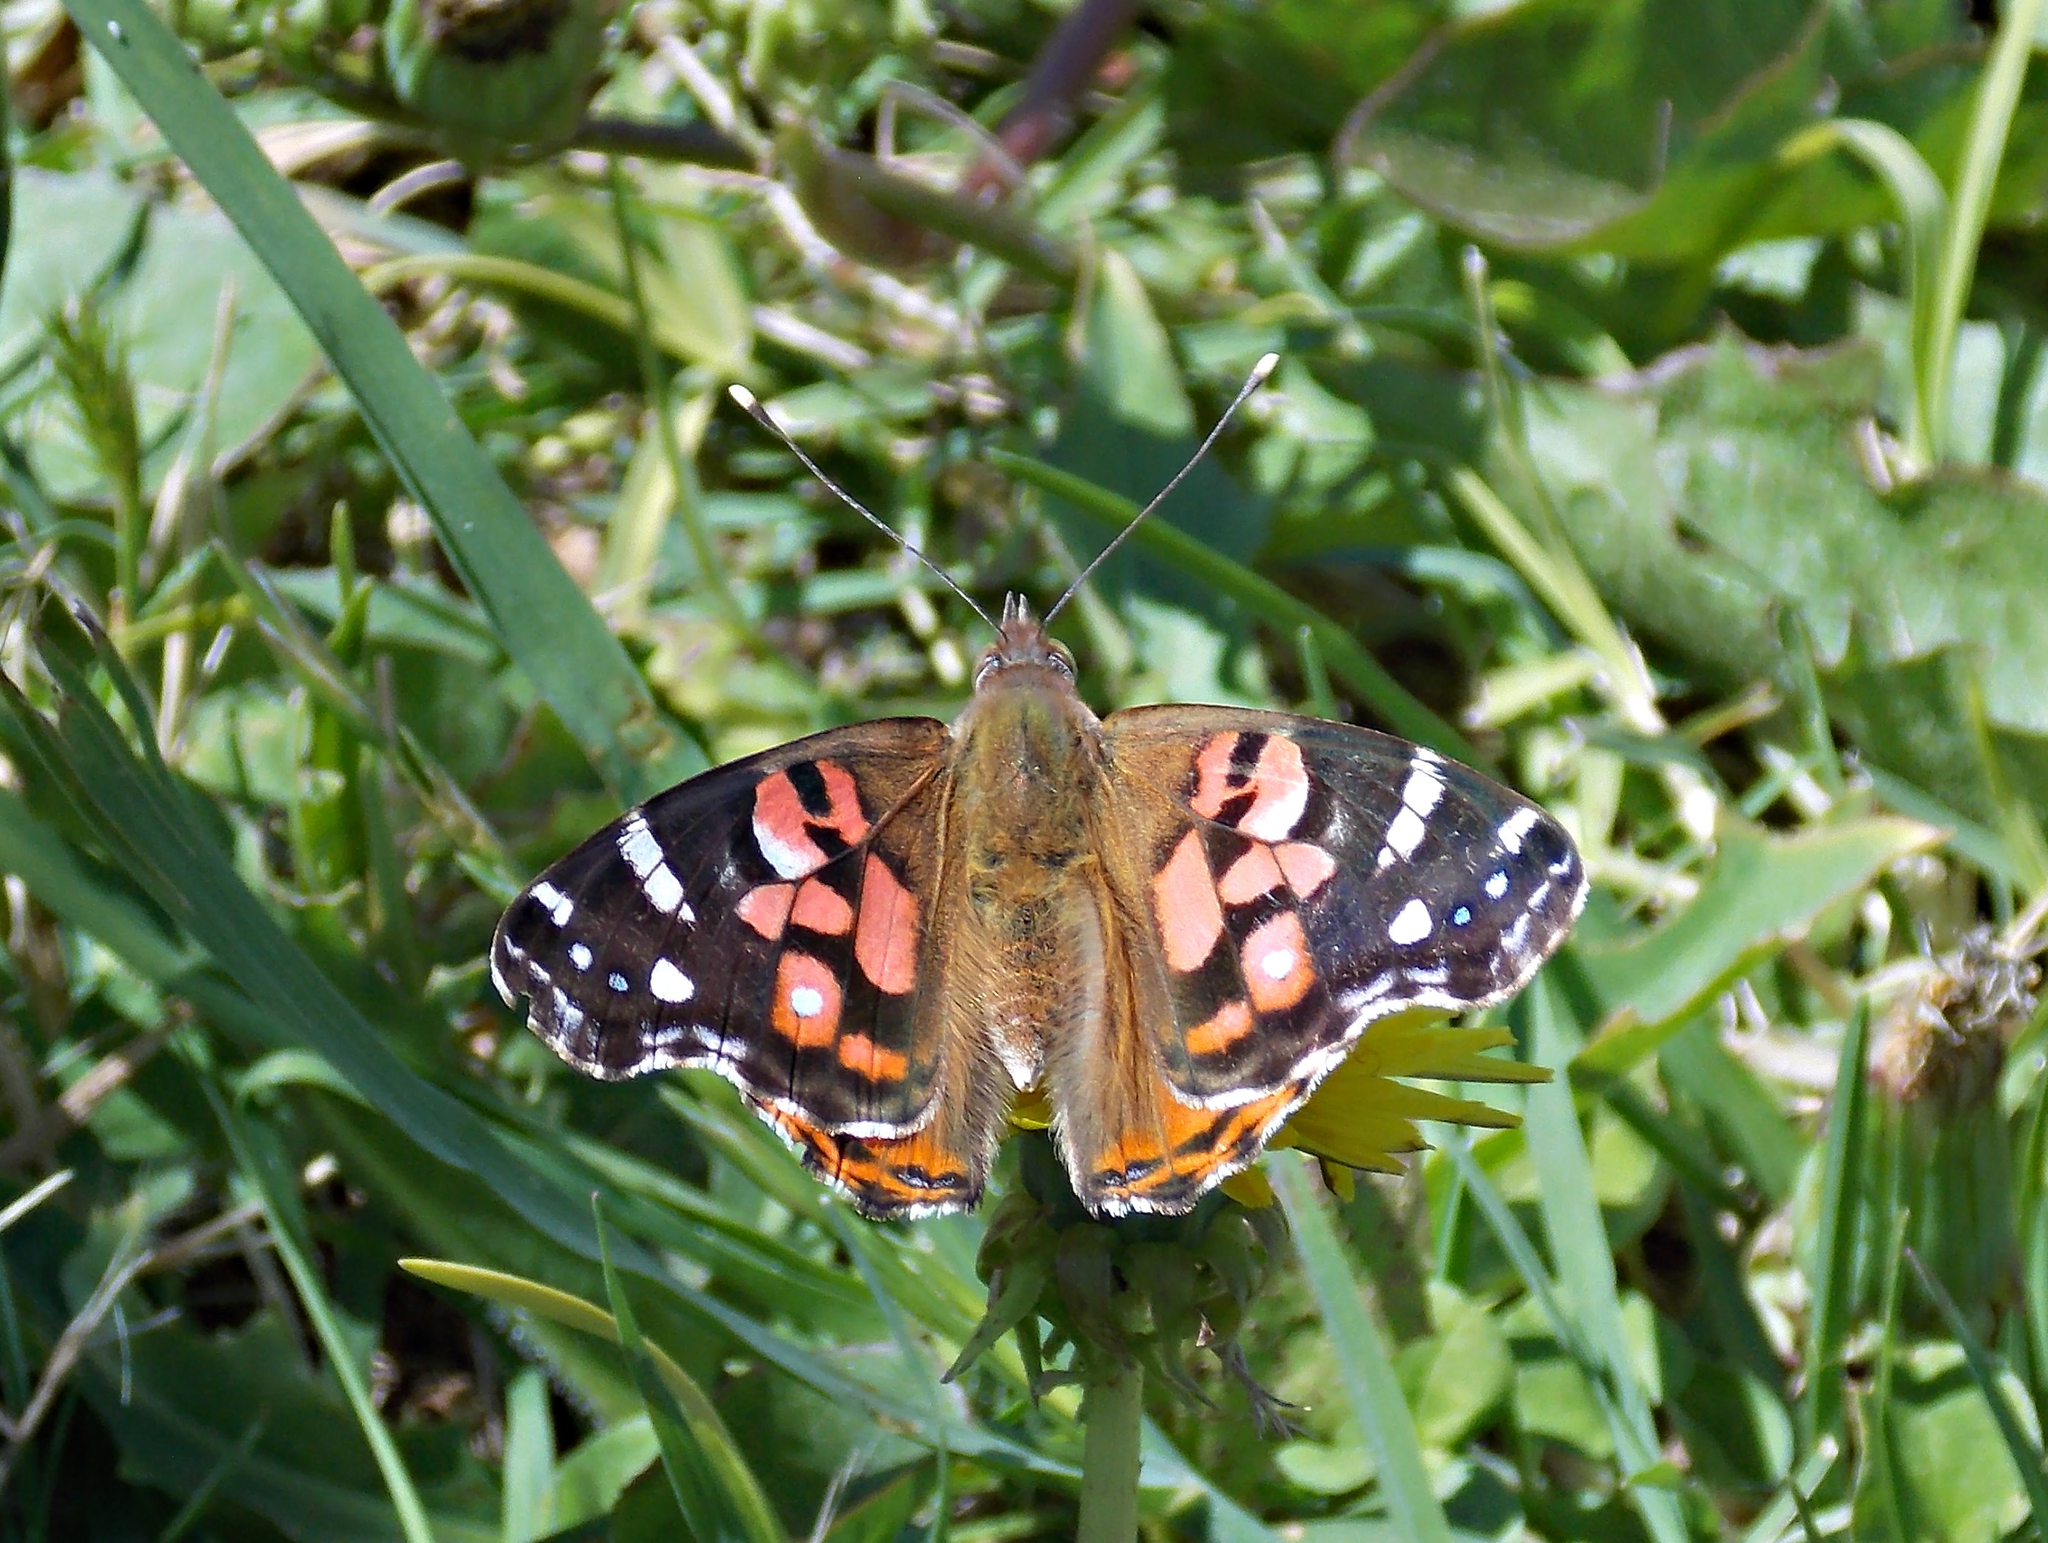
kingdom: Animalia
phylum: Arthropoda
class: Insecta
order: Lepidoptera
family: Nymphalidae
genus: Vanessa
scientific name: Vanessa braziliensis
